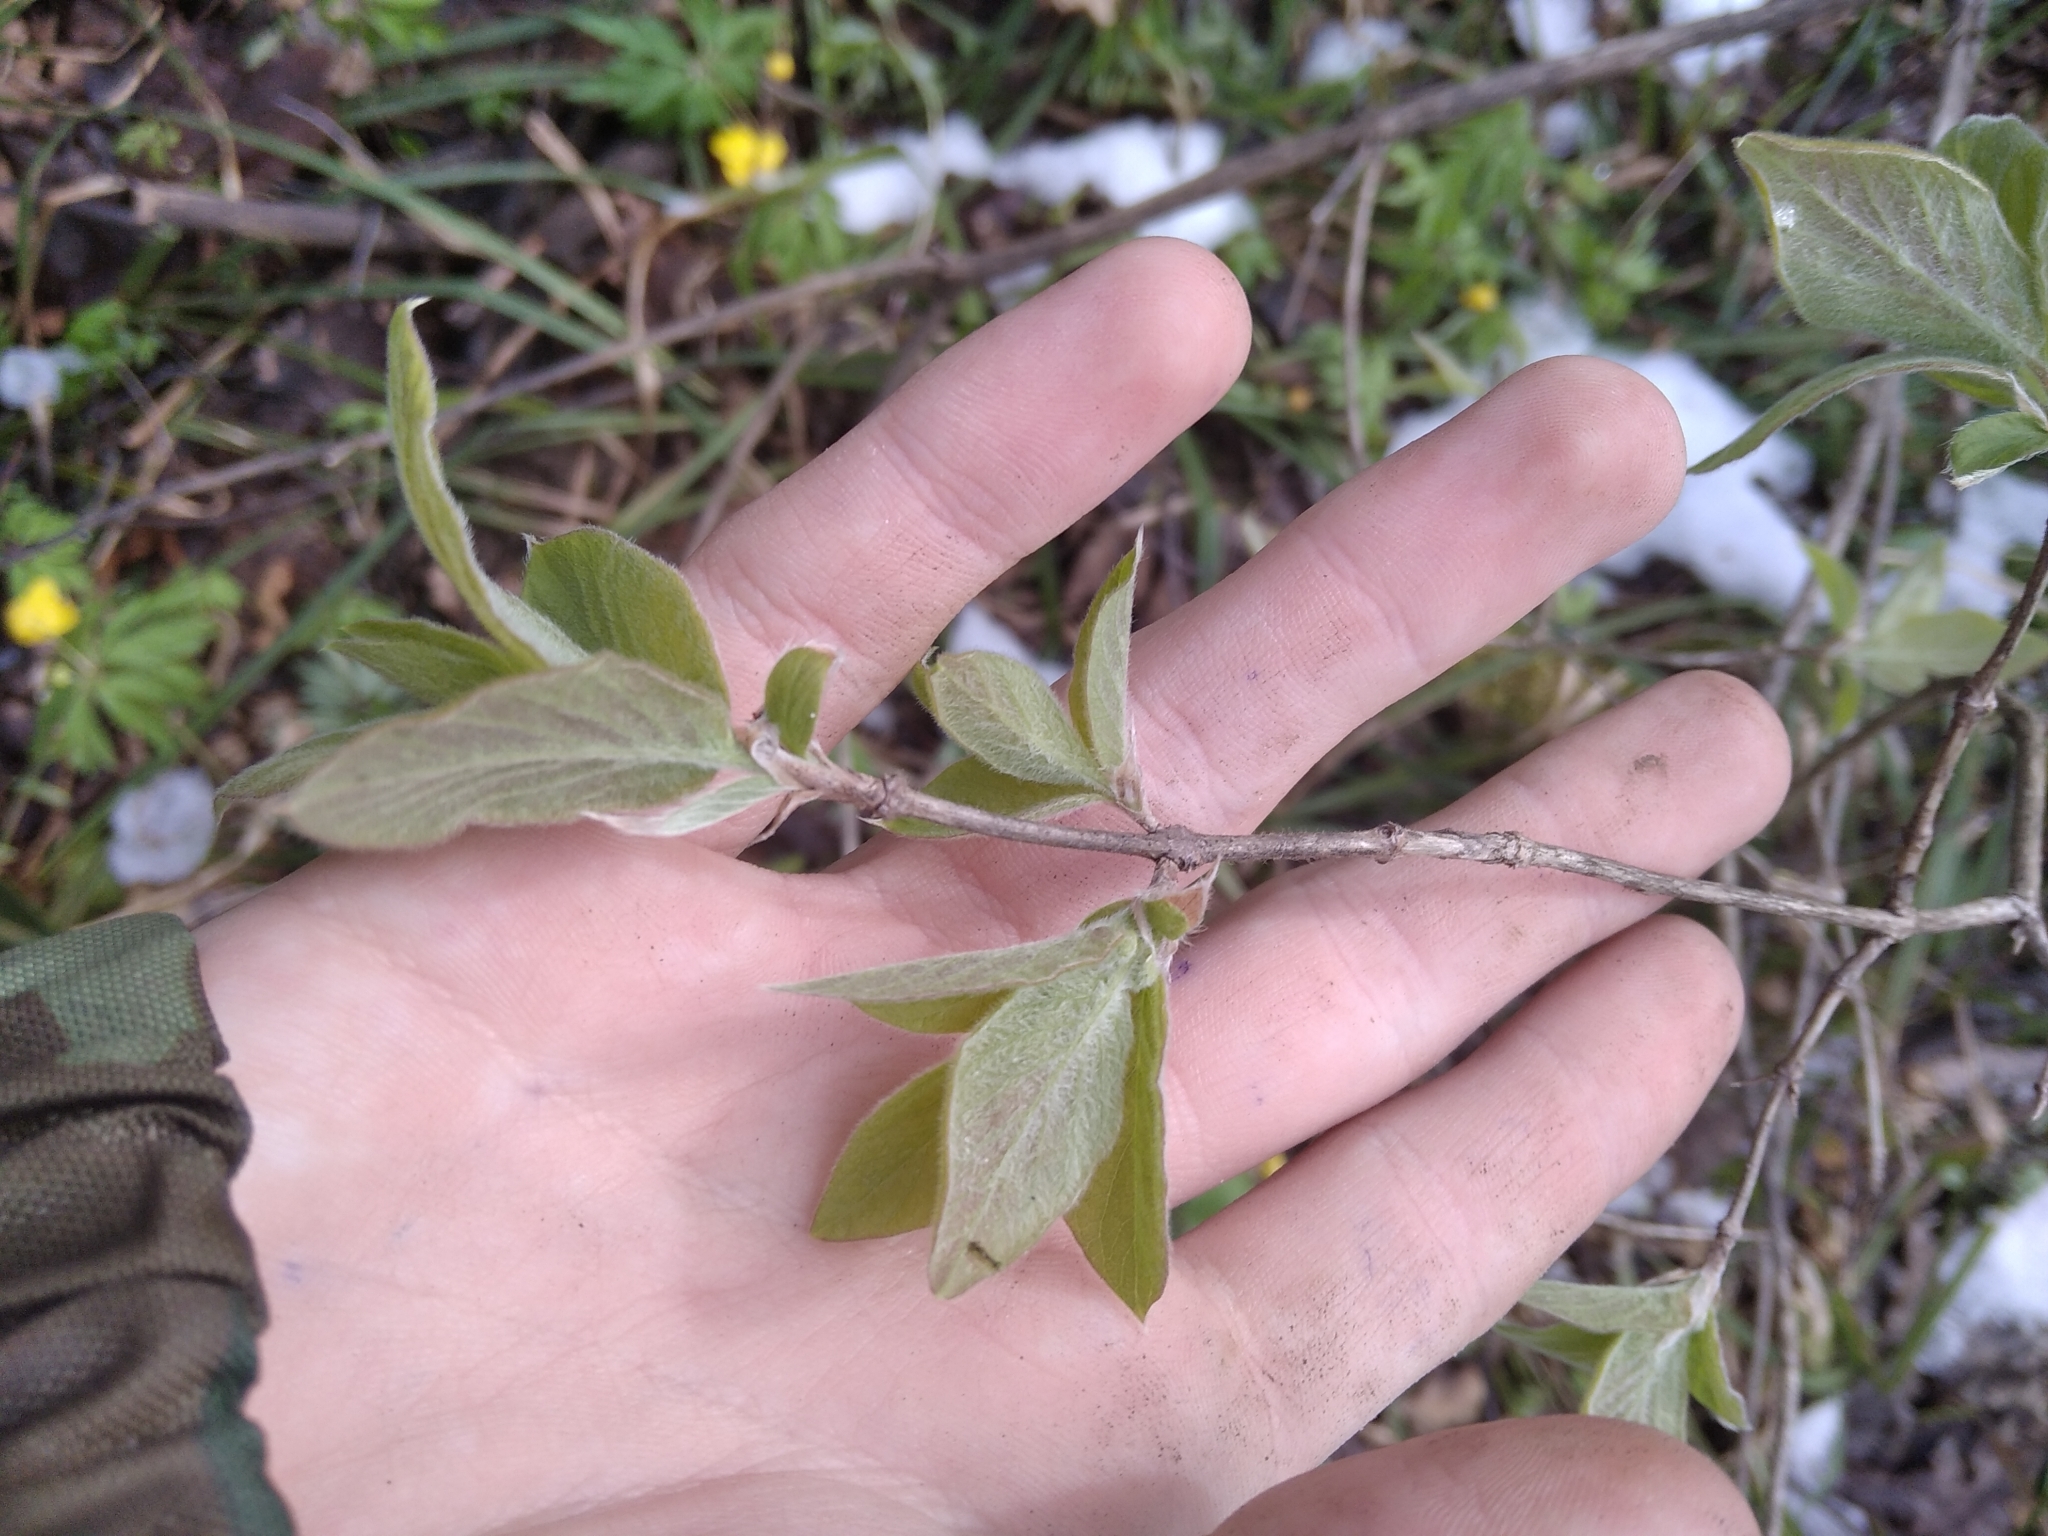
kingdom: Plantae
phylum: Tracheophyta
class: Magnoliopsida
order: Dipsacales
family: Caprifoliaceae
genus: Lonicera
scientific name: Lonicera xylosteum
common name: Fly honeysuckle
